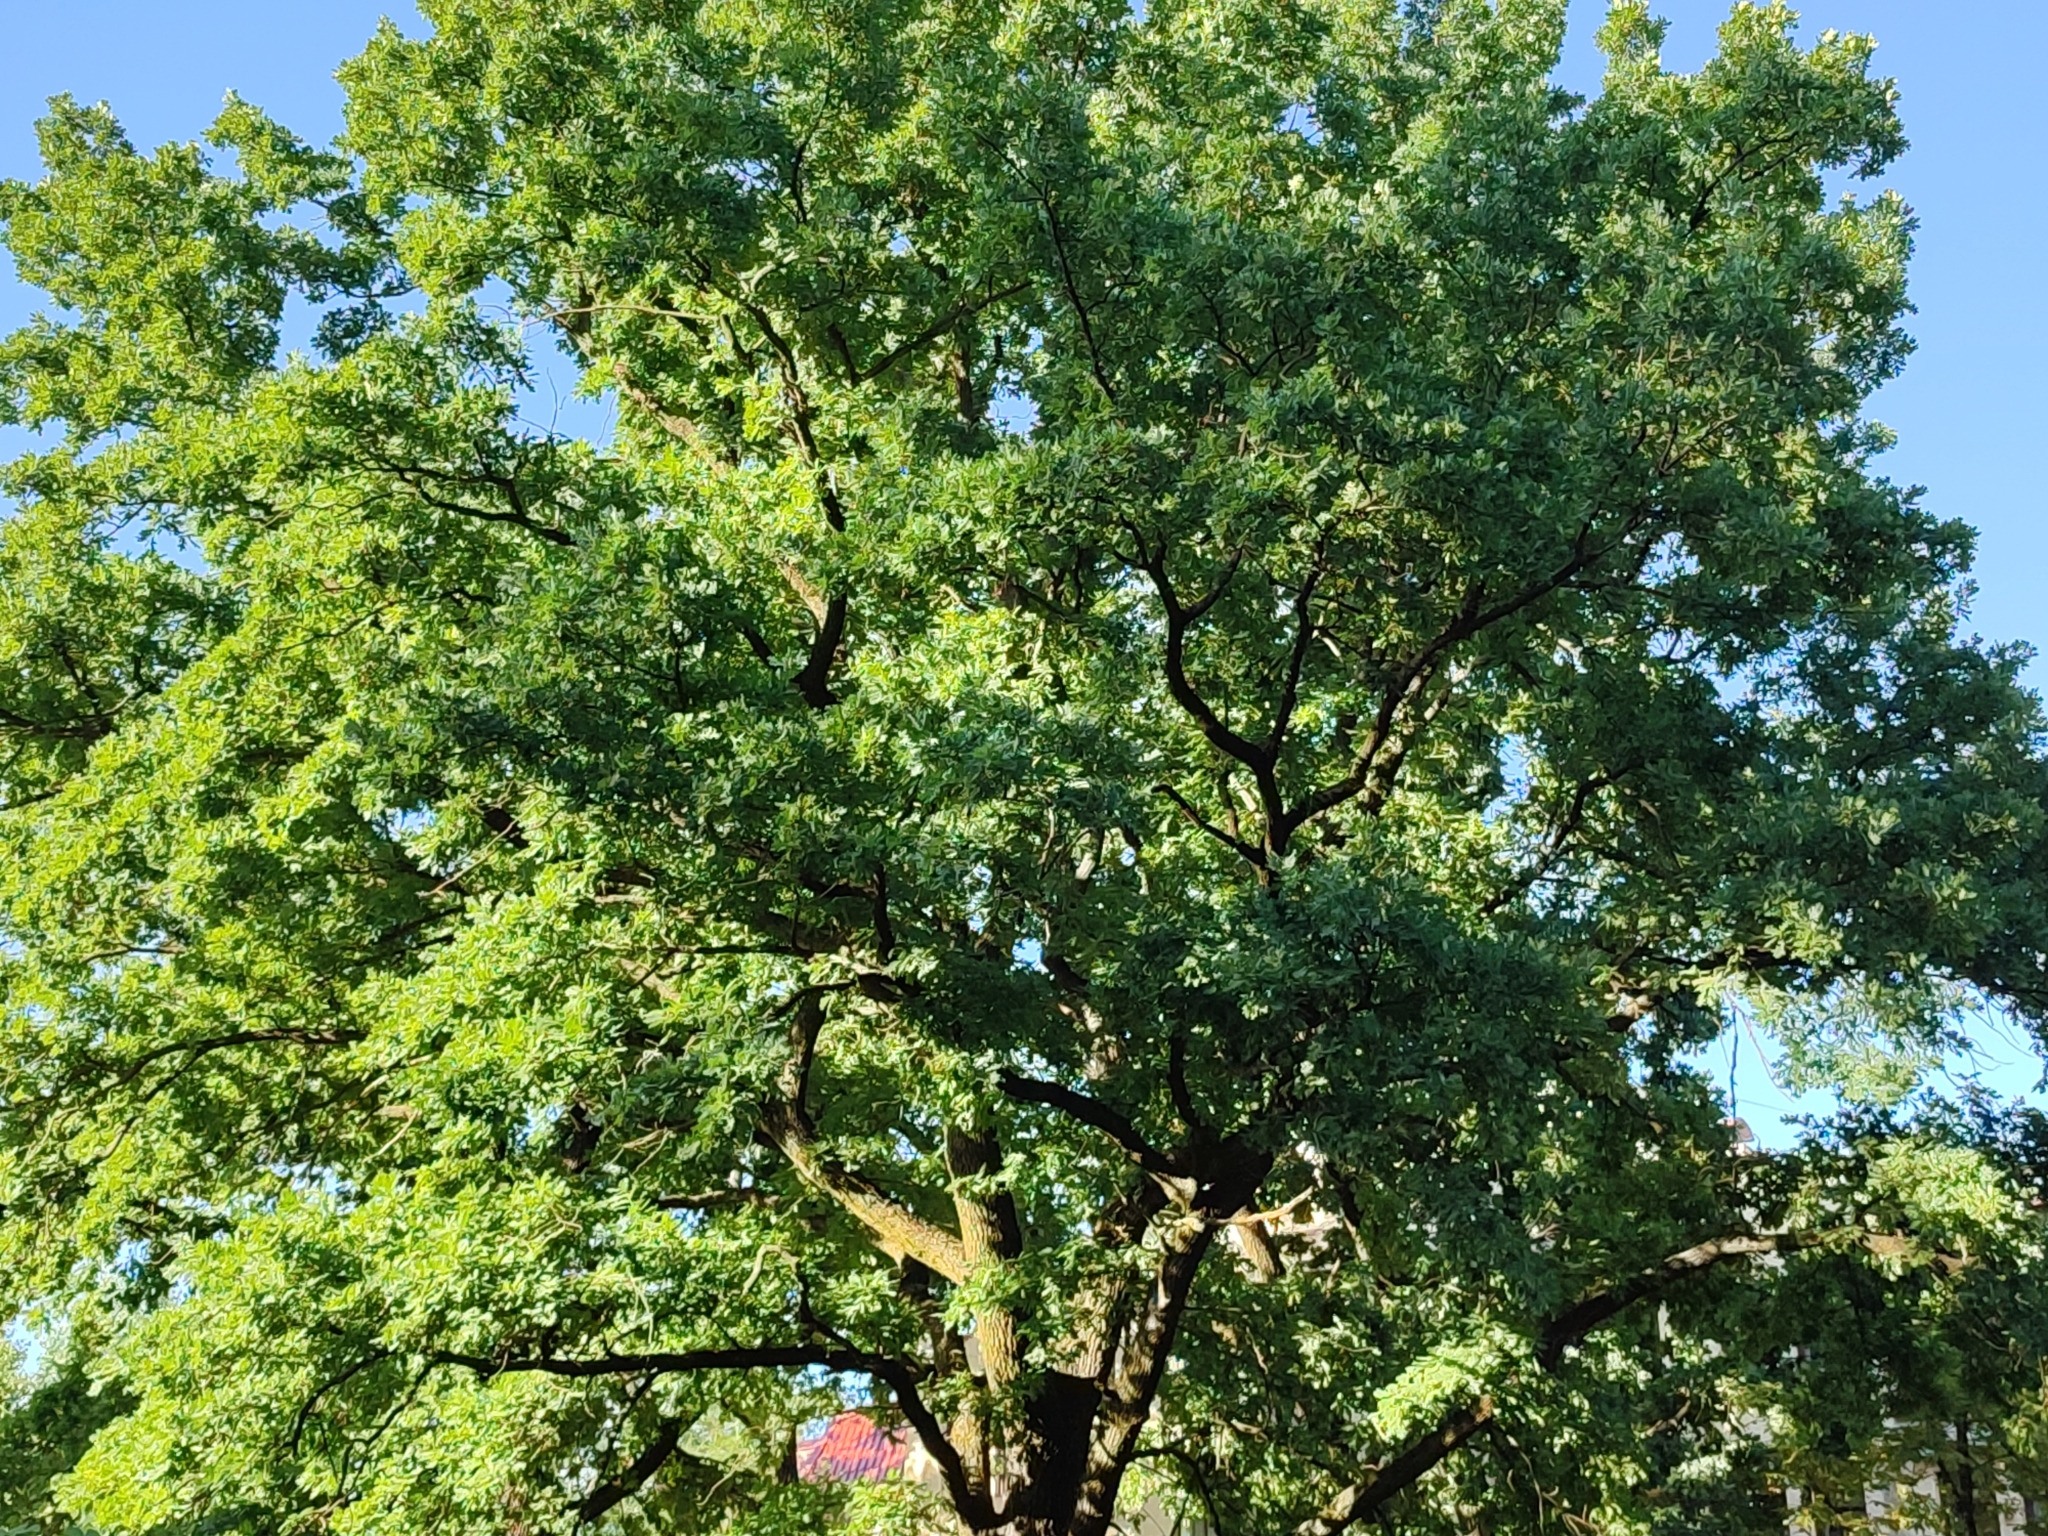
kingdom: Plantae
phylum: Tracheophyta
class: Magnoliopsida
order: Fagales
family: Fagaceae
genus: Quercus
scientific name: Quercus robur
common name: Pedunculate oak
